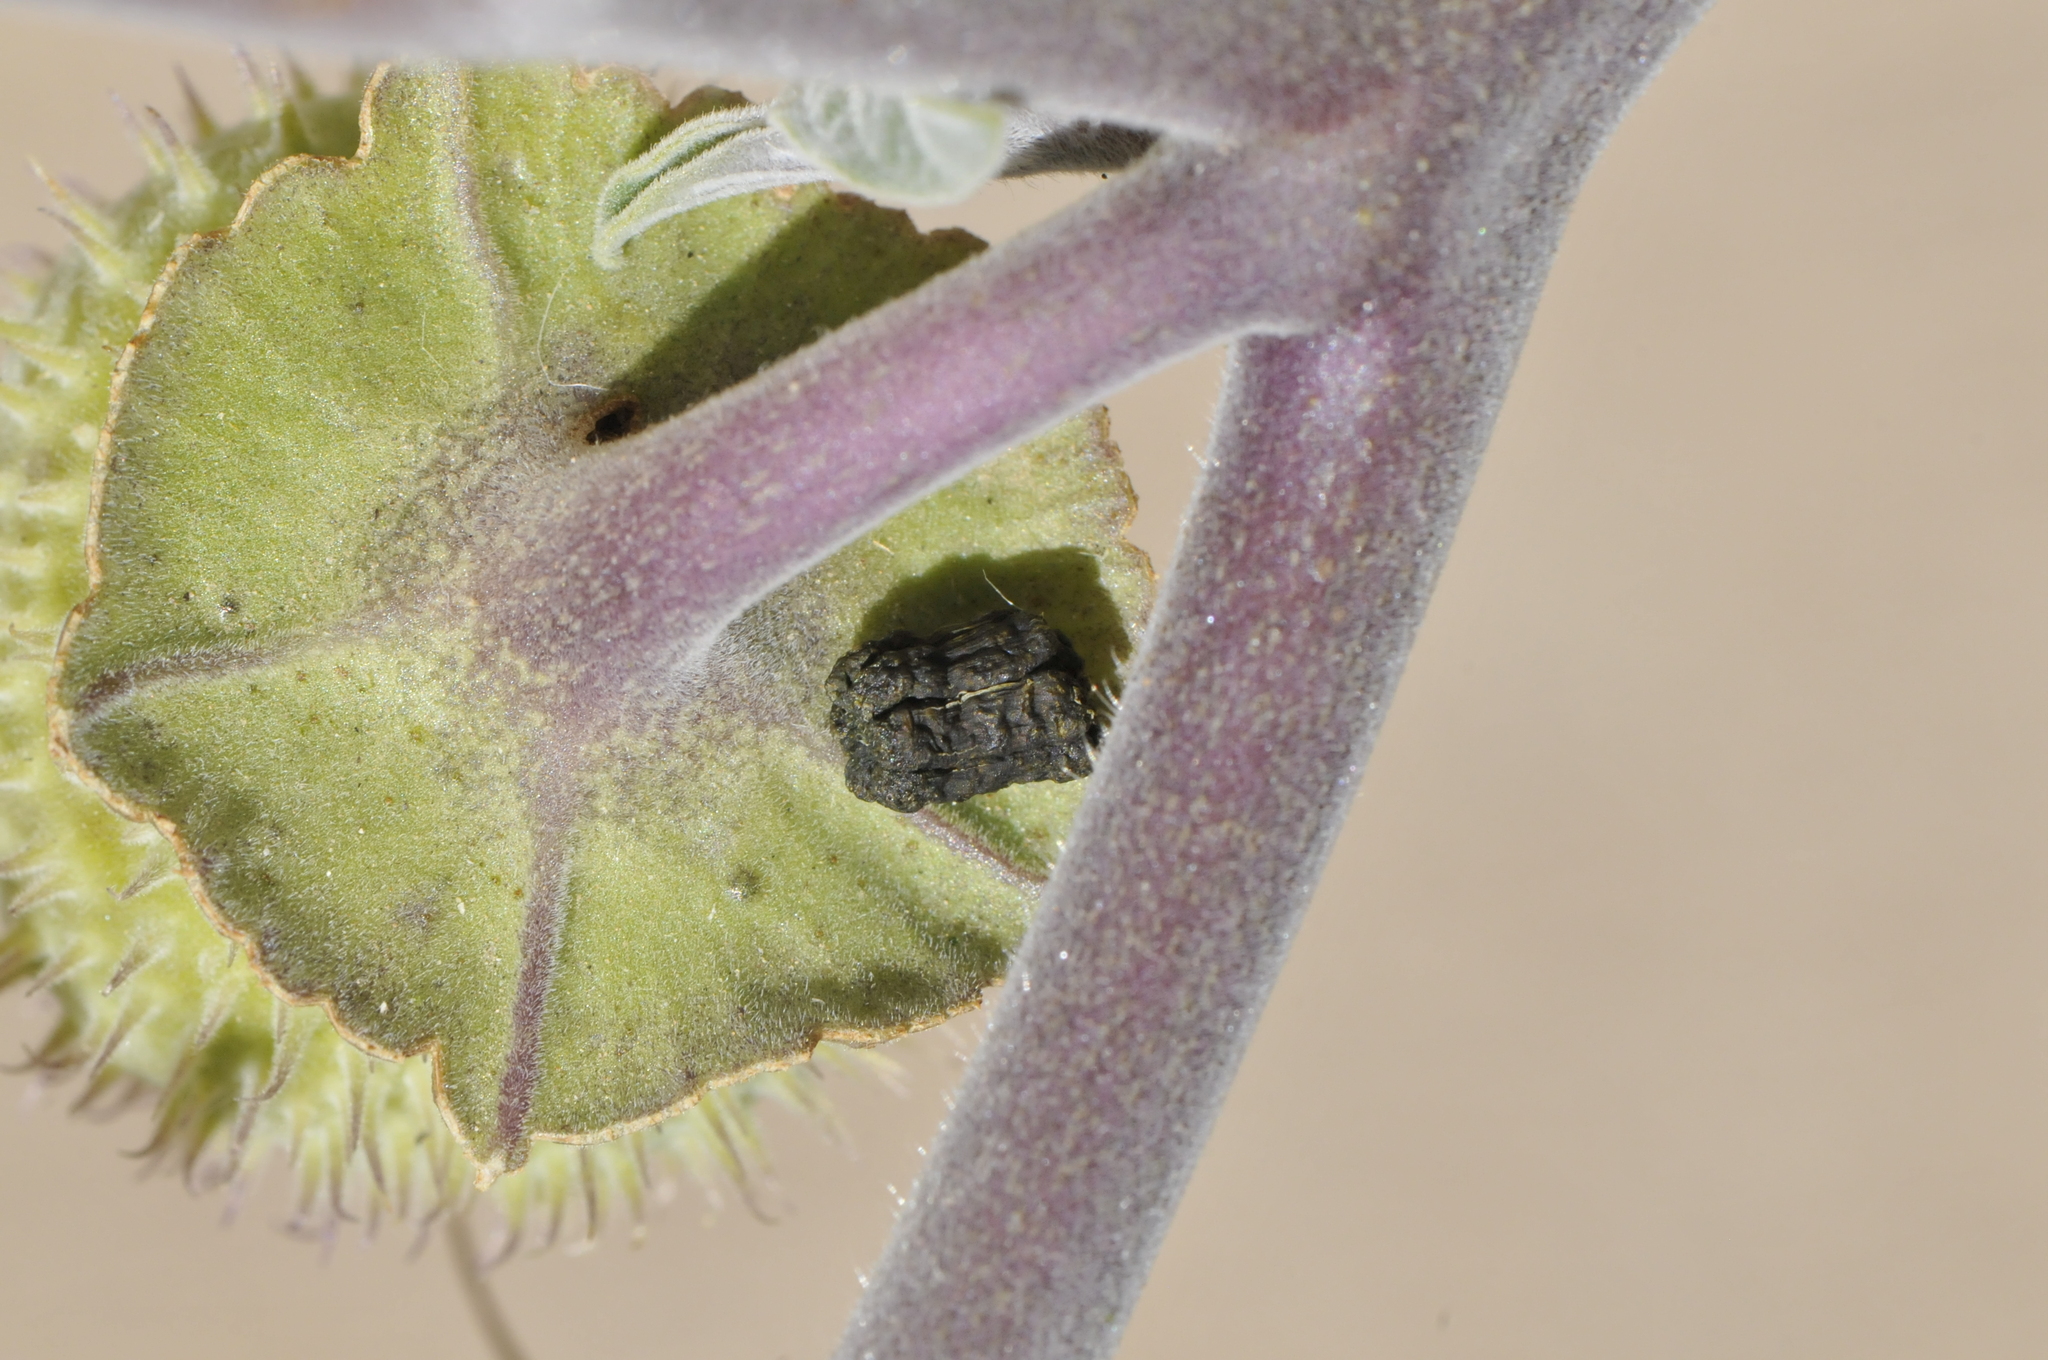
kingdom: Animalia
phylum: Arthropoda
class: Insecta
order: Lepidoptera
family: Sphingidae
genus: Manduca
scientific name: Manduca sexta
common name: Carolina sphinx
